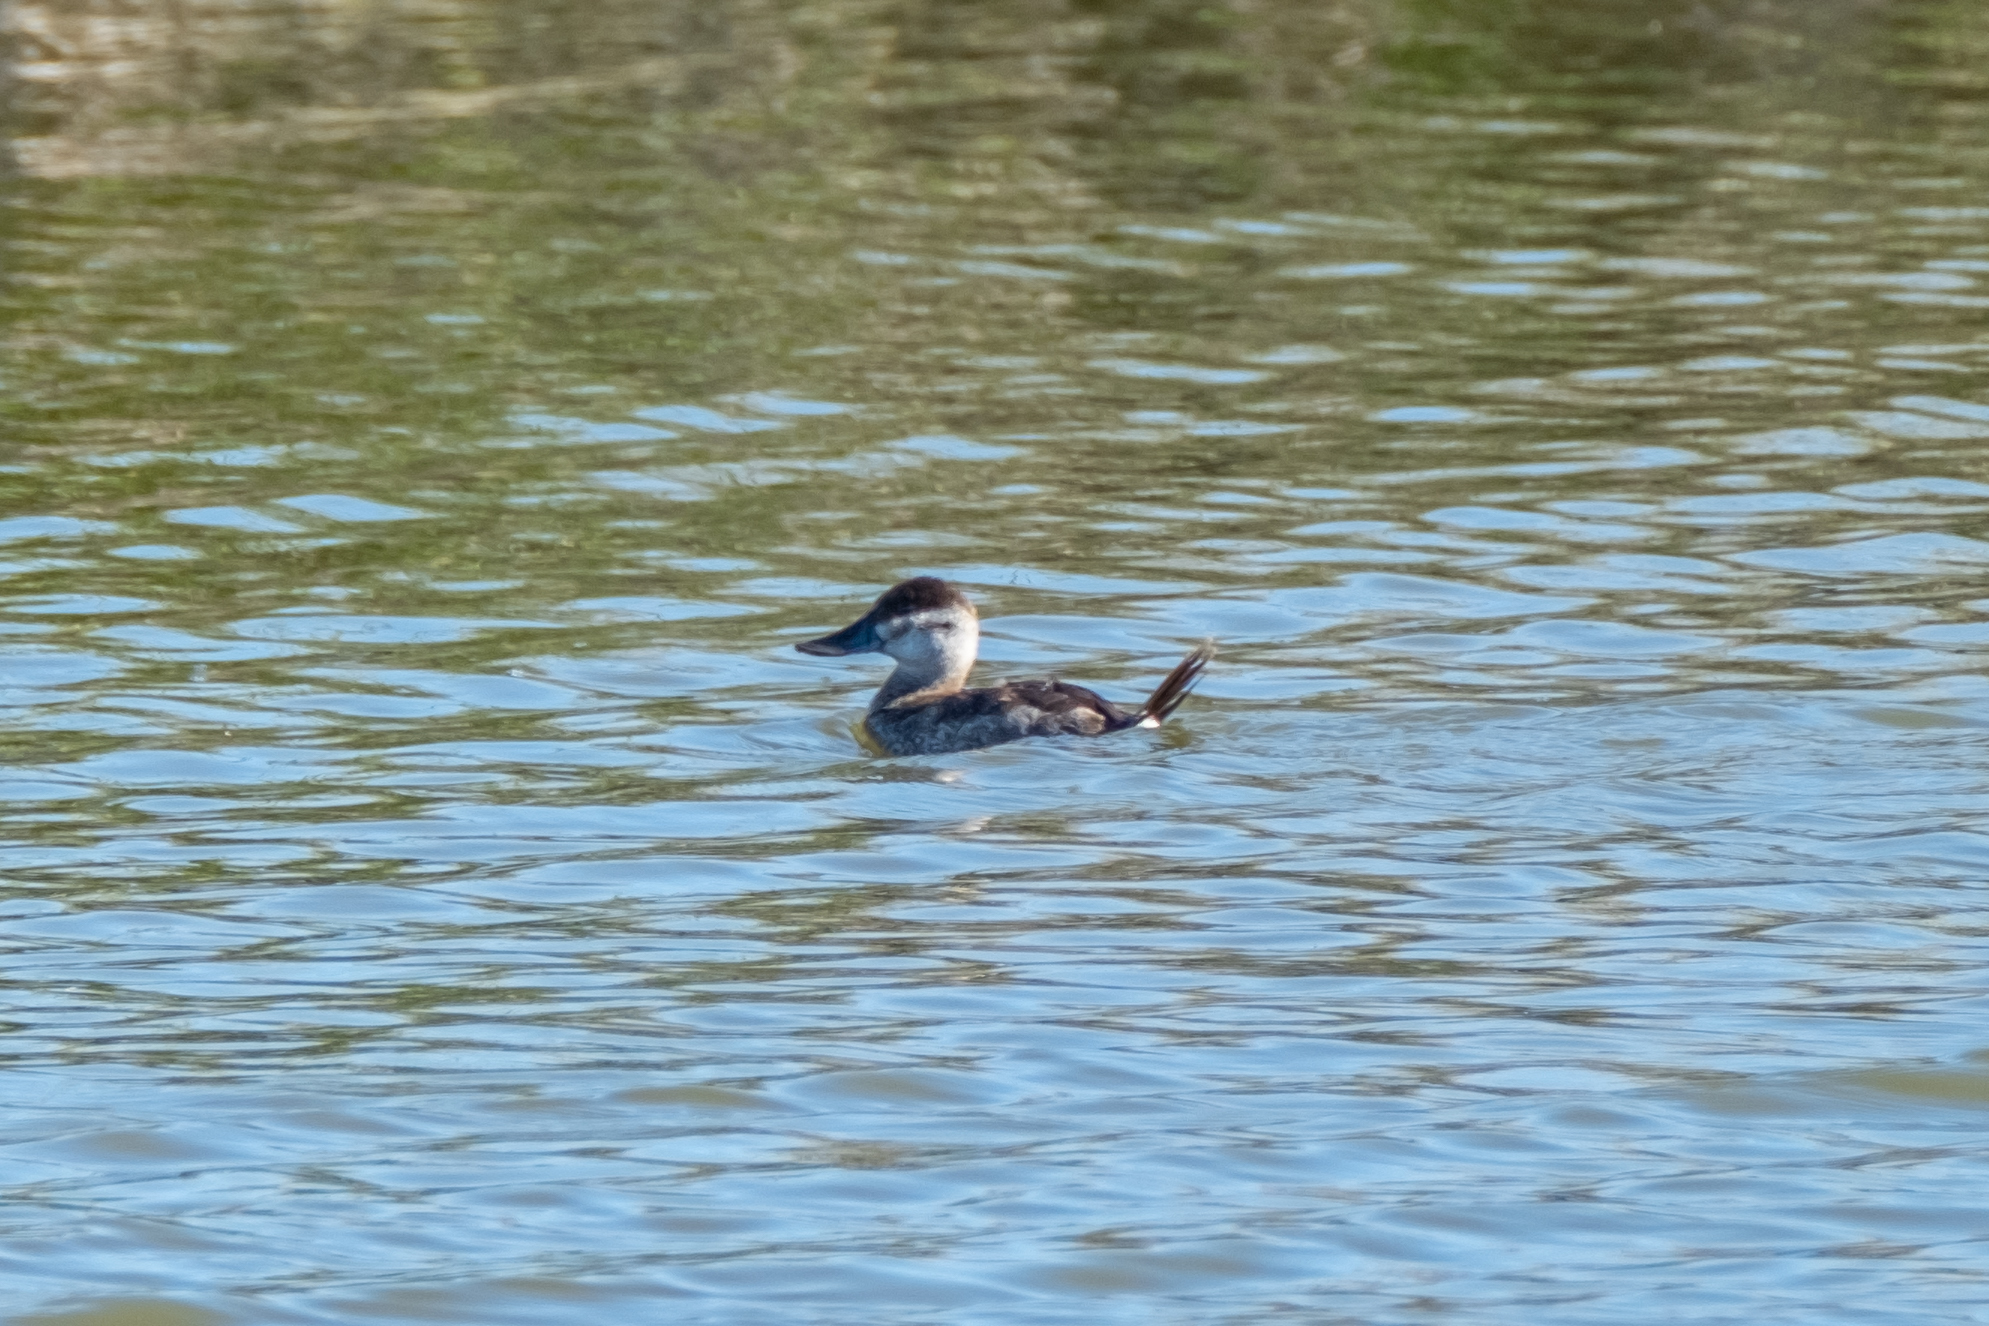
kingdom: Animalia
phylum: Chordata
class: Aves
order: Anseriformes
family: Anatidae
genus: Oxyura
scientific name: Oxyura jamaicensis
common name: Ruddy duck
